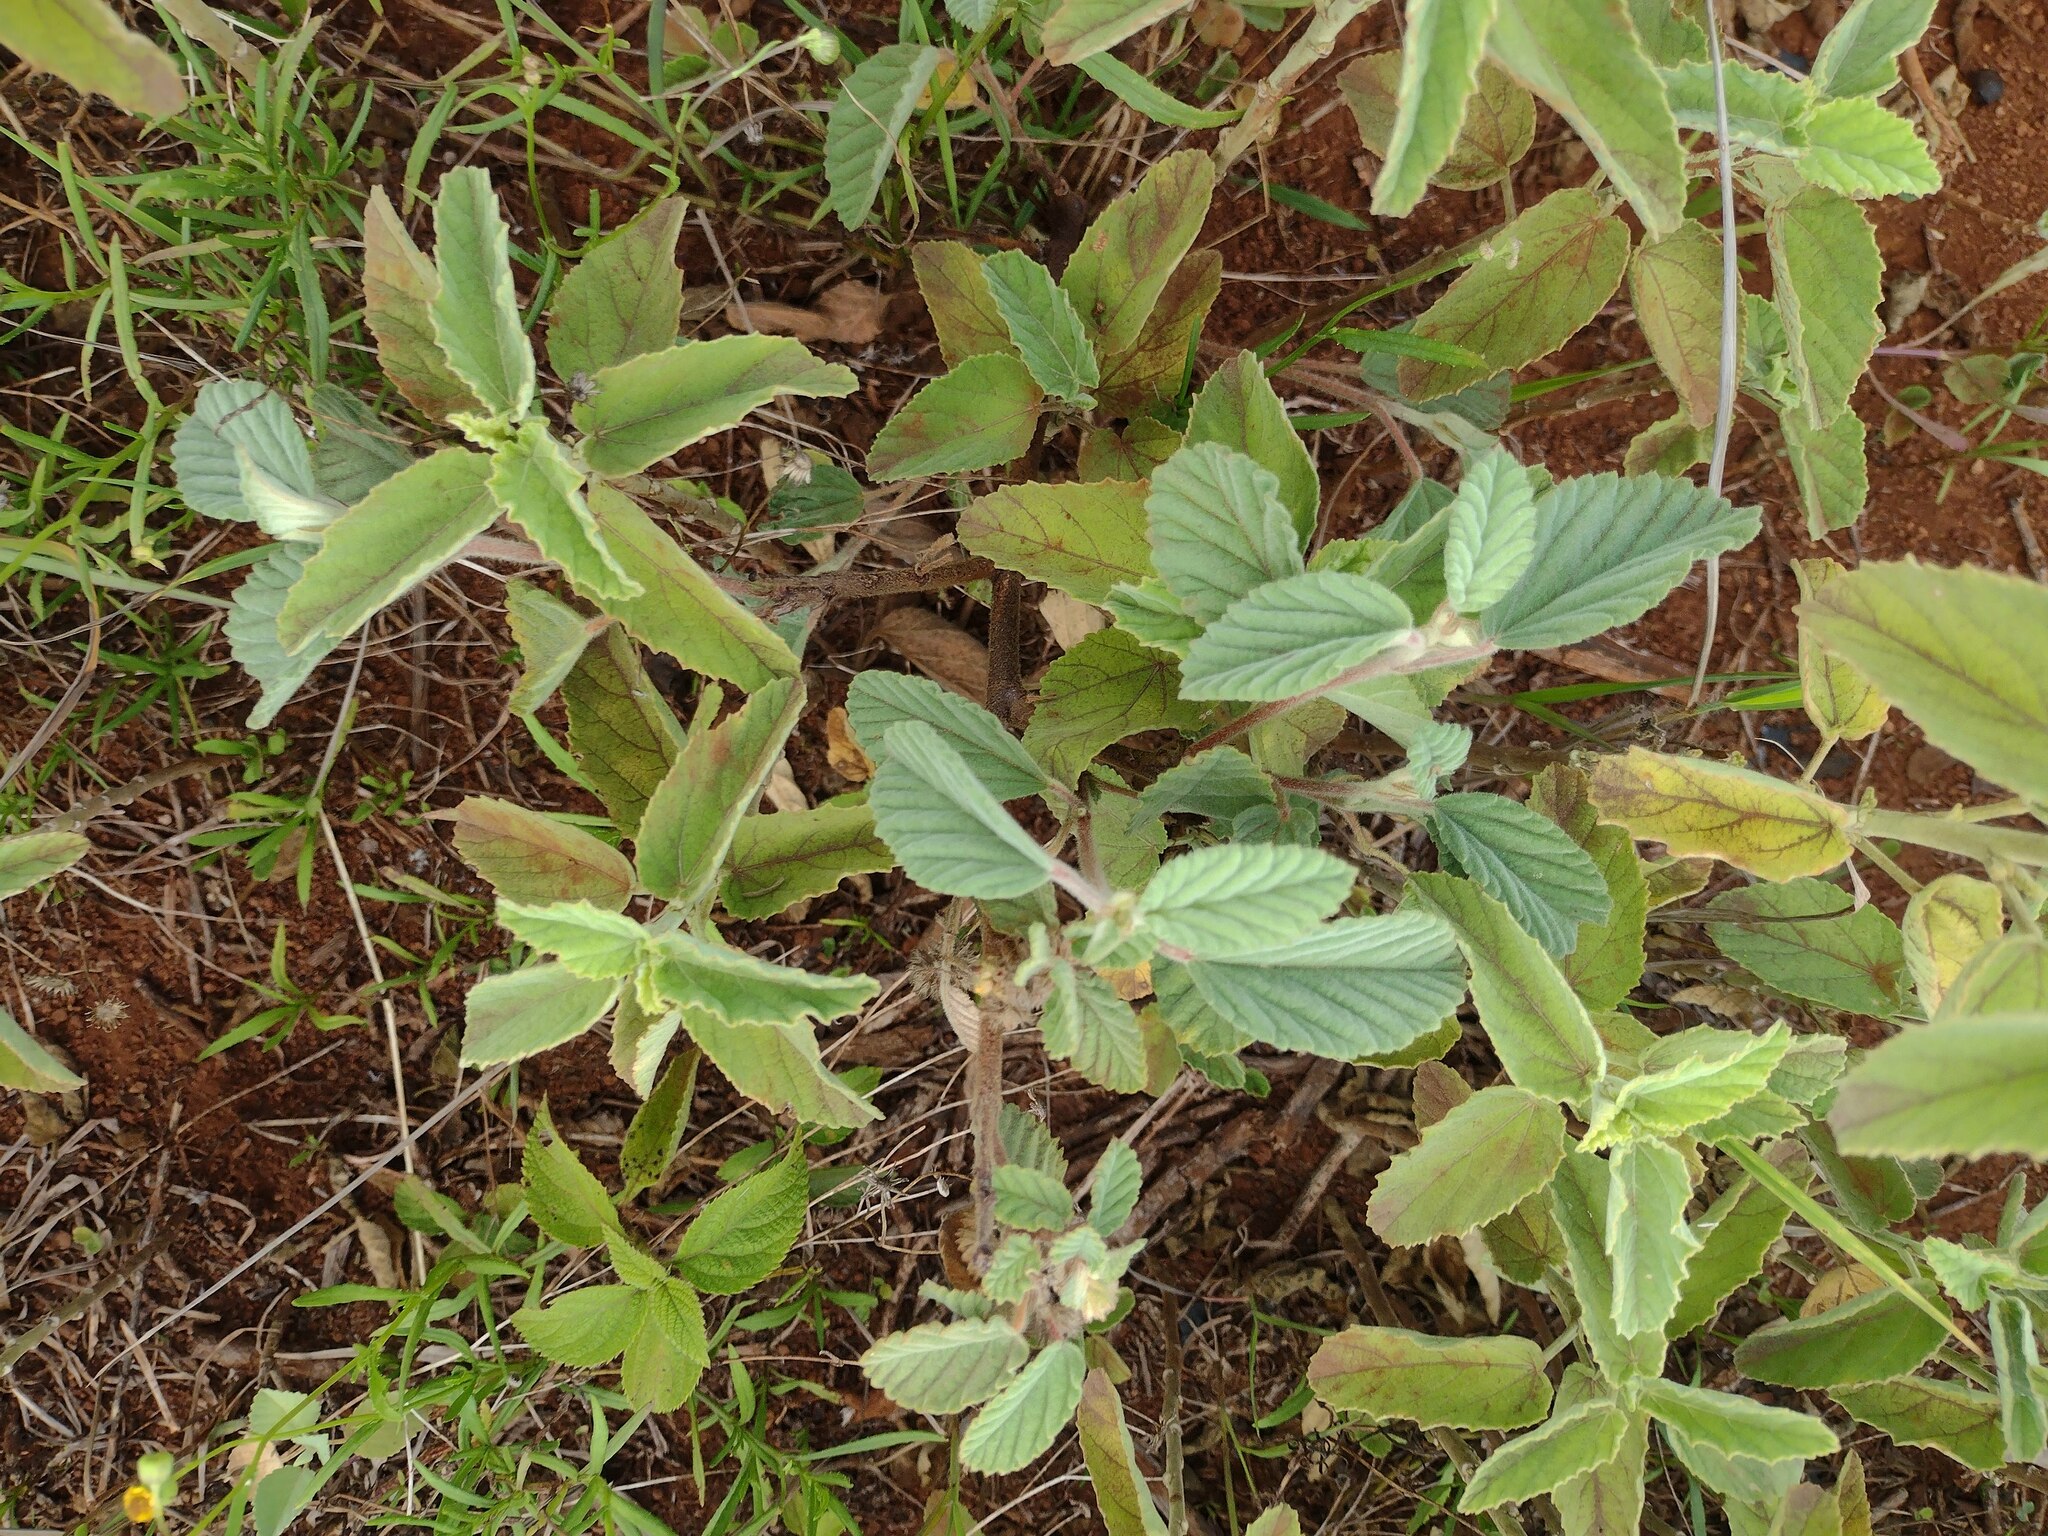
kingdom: Plantae
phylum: Tracheophyta
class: Magnoliopsida
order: Malvales
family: Malvaceae
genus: Waltheria
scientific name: Waltheria indica
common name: Leather-coat
